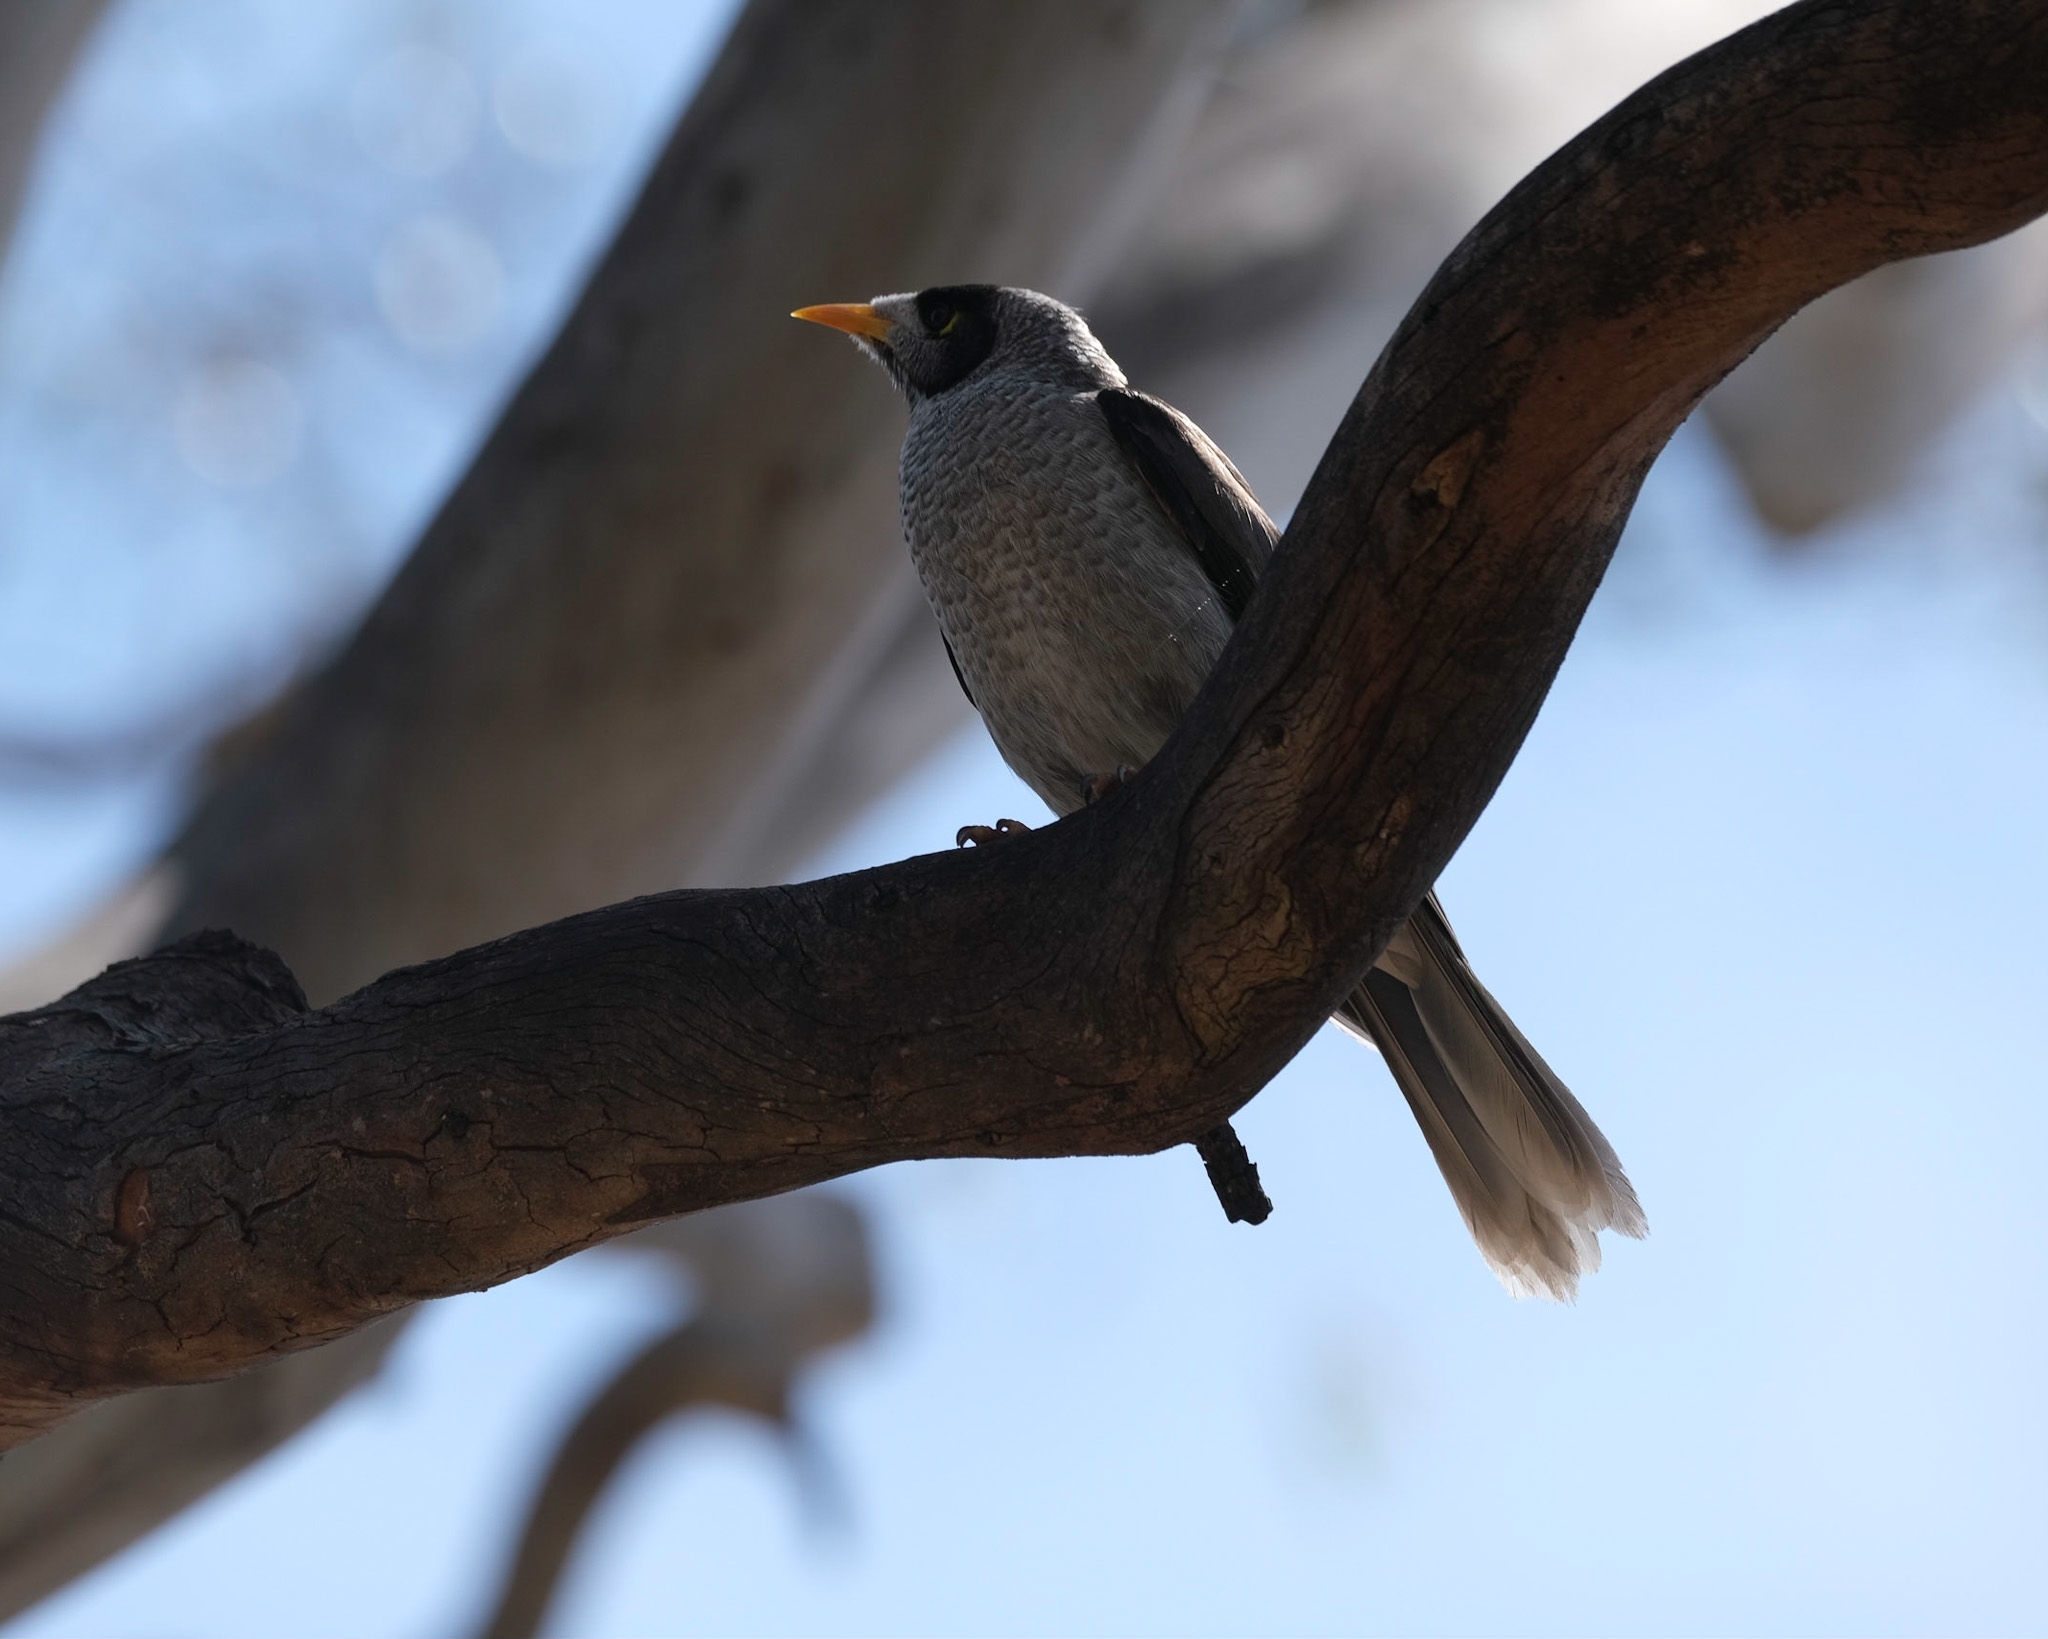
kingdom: Animalia
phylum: Chordata
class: Aves
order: Passeriformes
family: Meliphagidae
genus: Manorina
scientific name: Manorina melanocephala
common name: Noisy miner
